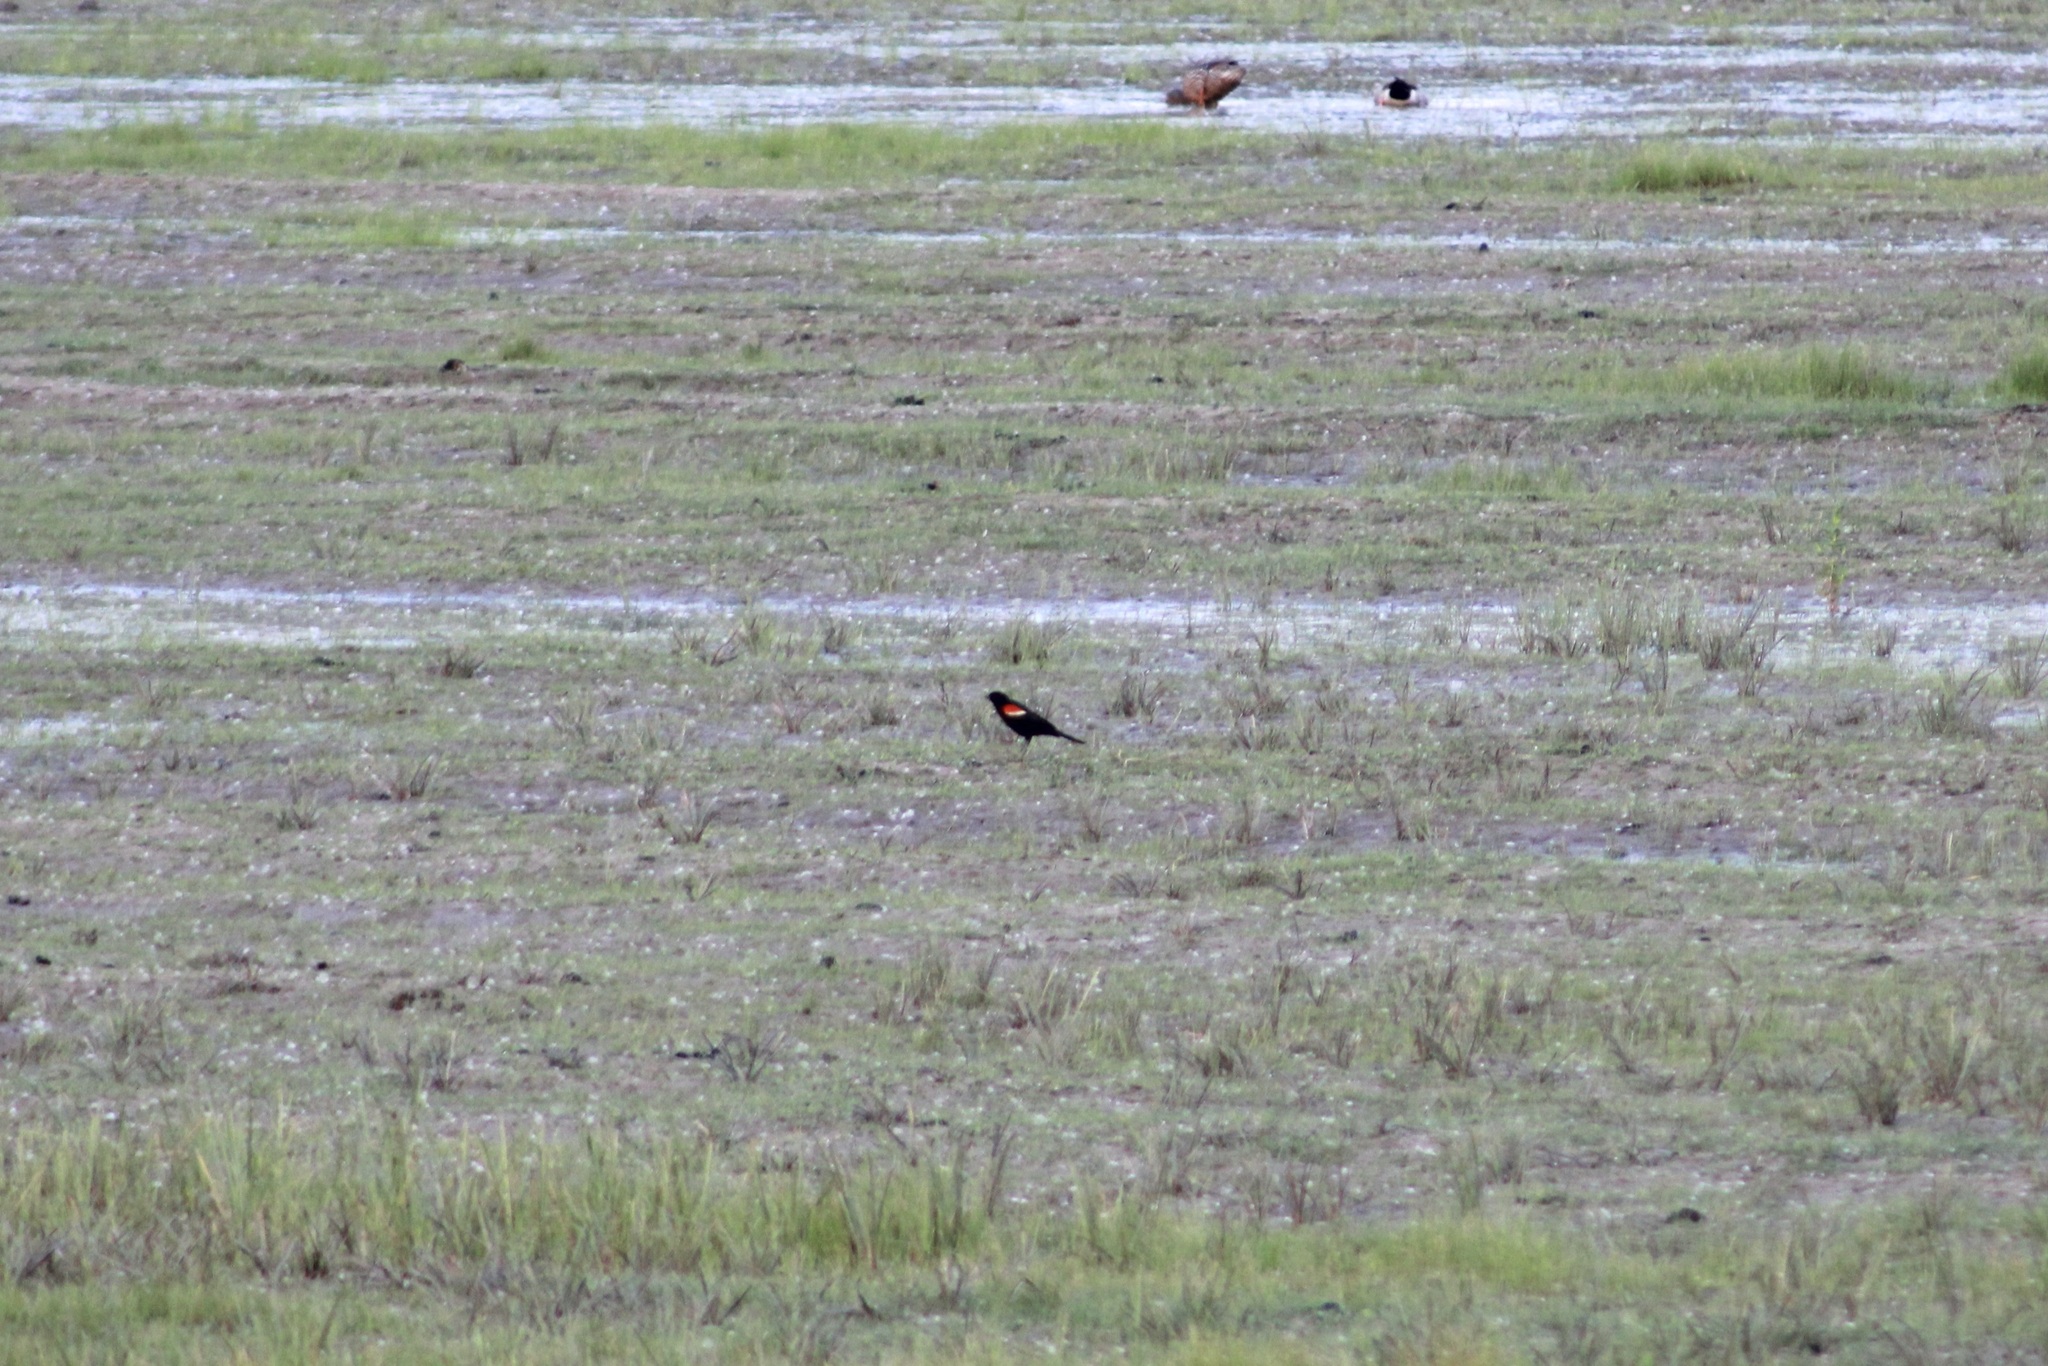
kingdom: Animalia
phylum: Chordata
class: Aves
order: Passeriformes
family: Icteridae
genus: Agelaius
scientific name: Agelaius phoeniceus
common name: Red-winged blackbird
